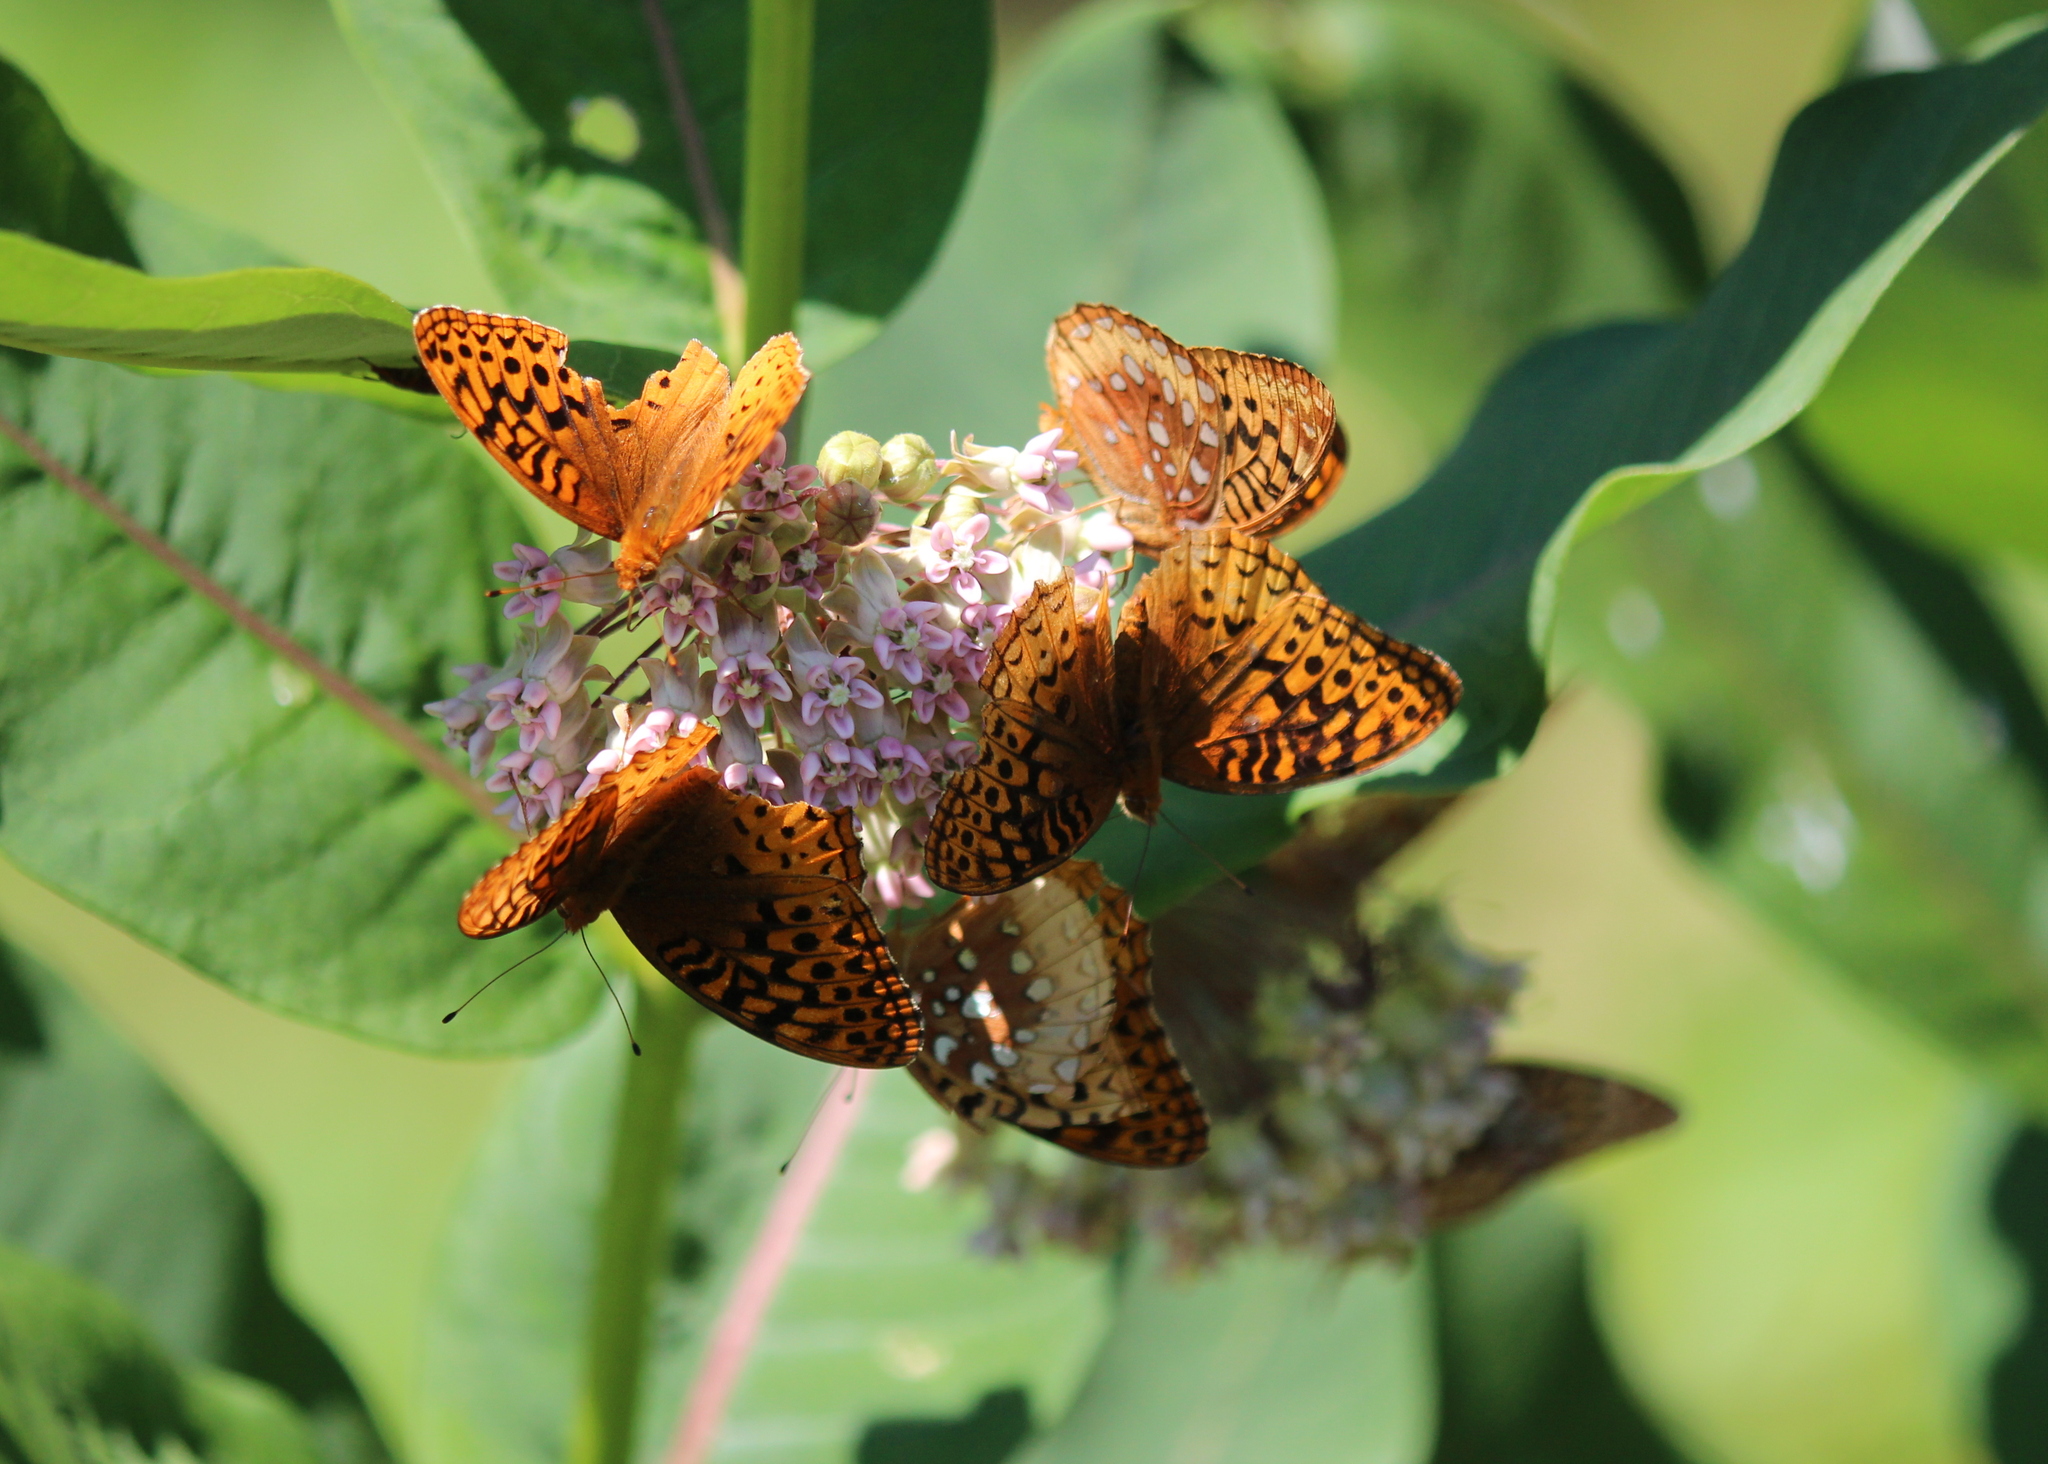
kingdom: Animalia
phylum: Arthropoda
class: Insecta
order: Lepidoptera
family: Nymphalidae
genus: Speyeria
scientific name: Speyeria cybele
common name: Great spangled fritillary
